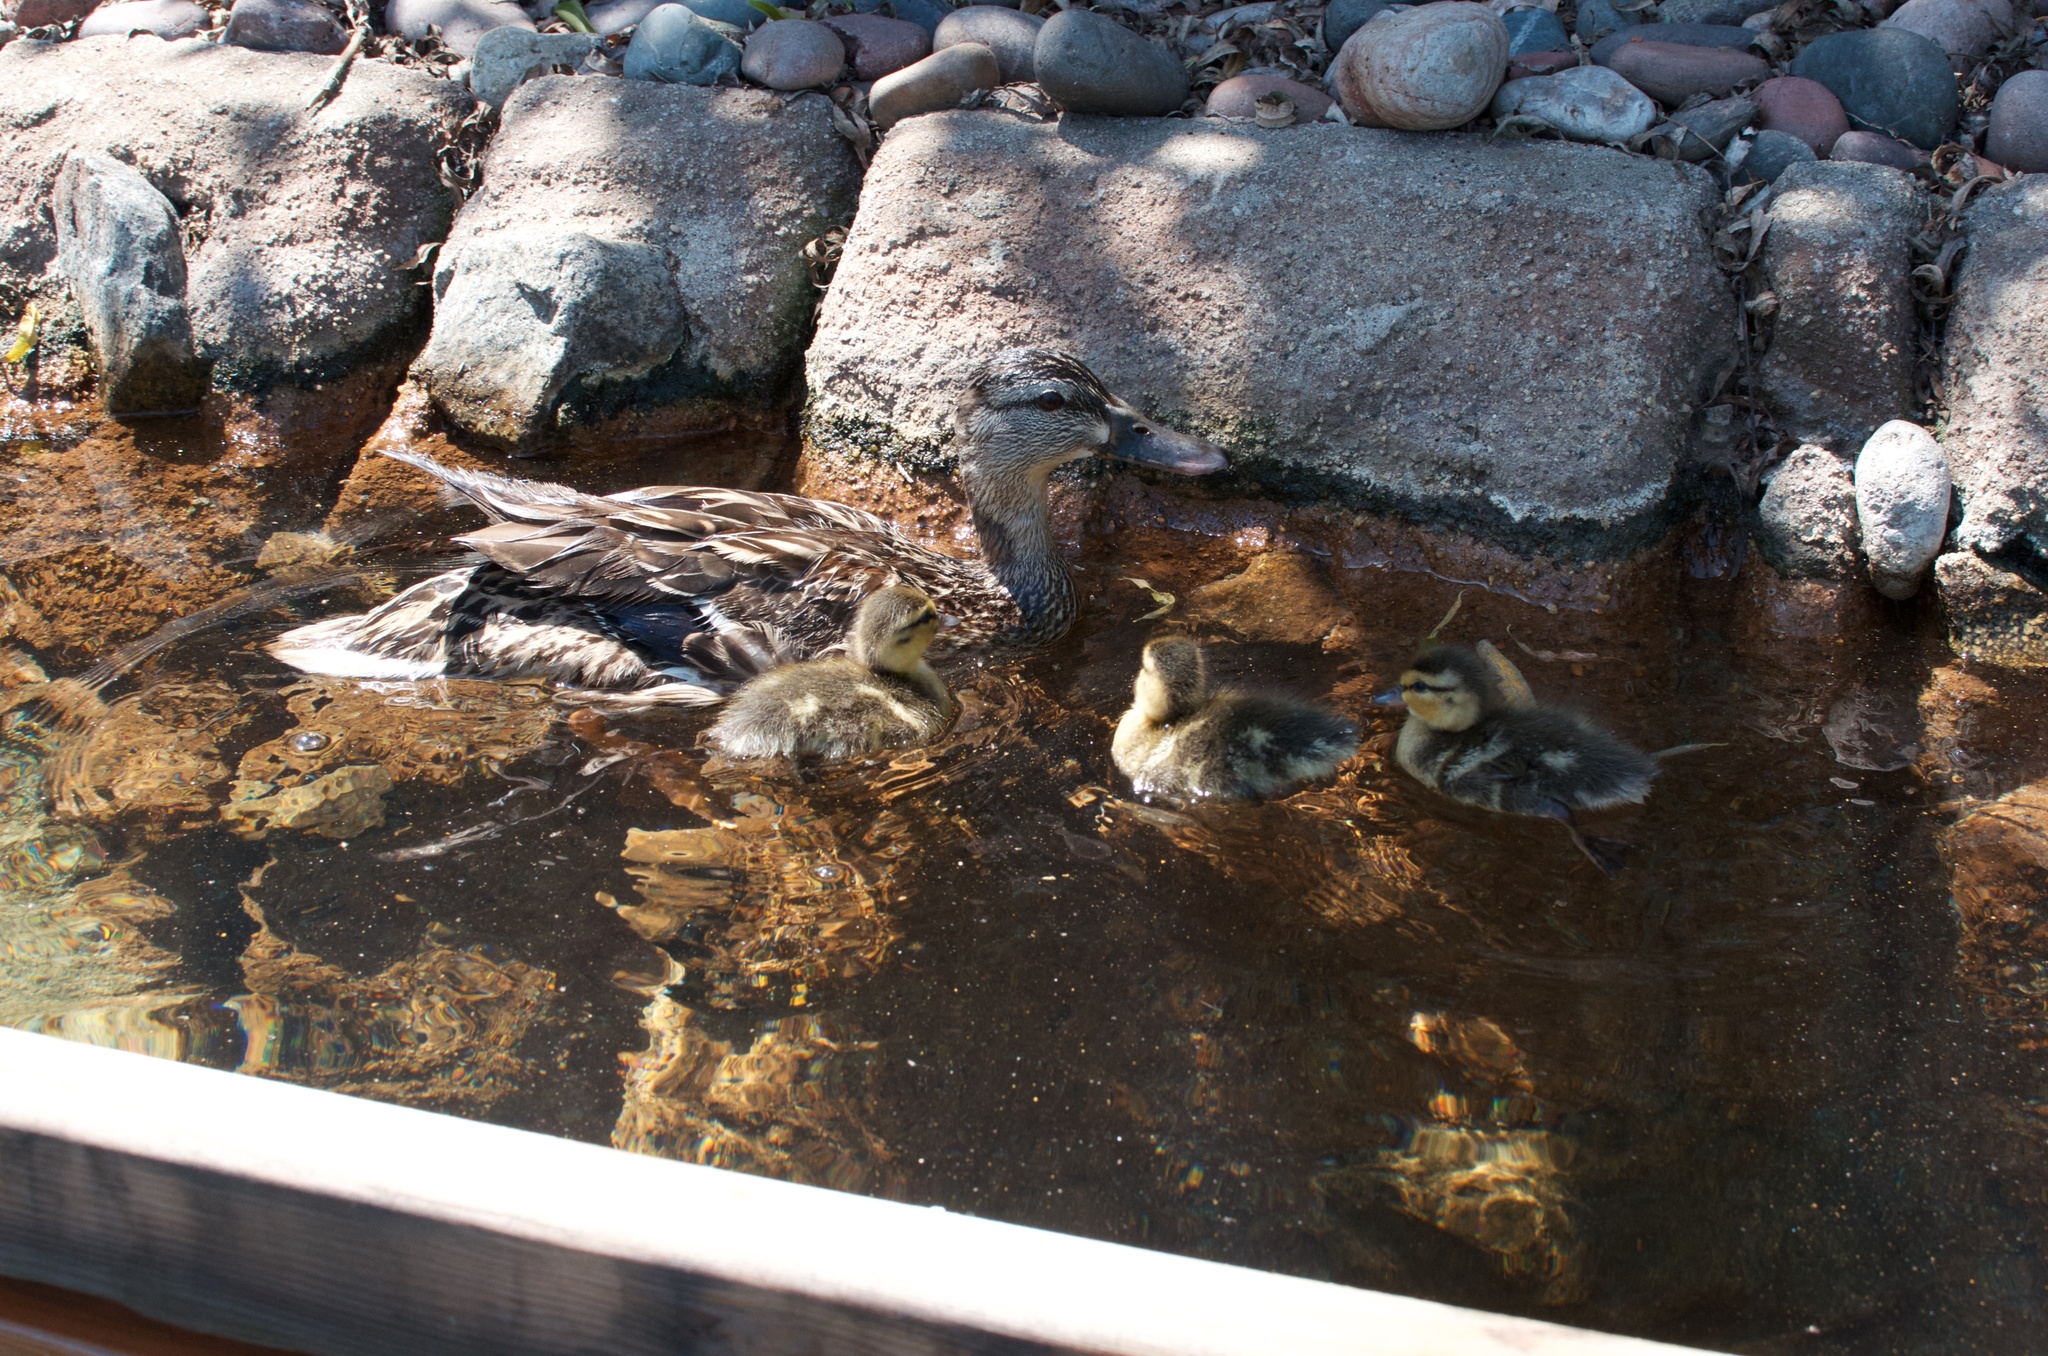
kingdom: Animalia
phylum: Chordata
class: Aves
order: Anseriformes
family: Anatidae
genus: Anas
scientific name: Anas platyrhynchos
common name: Mallard
